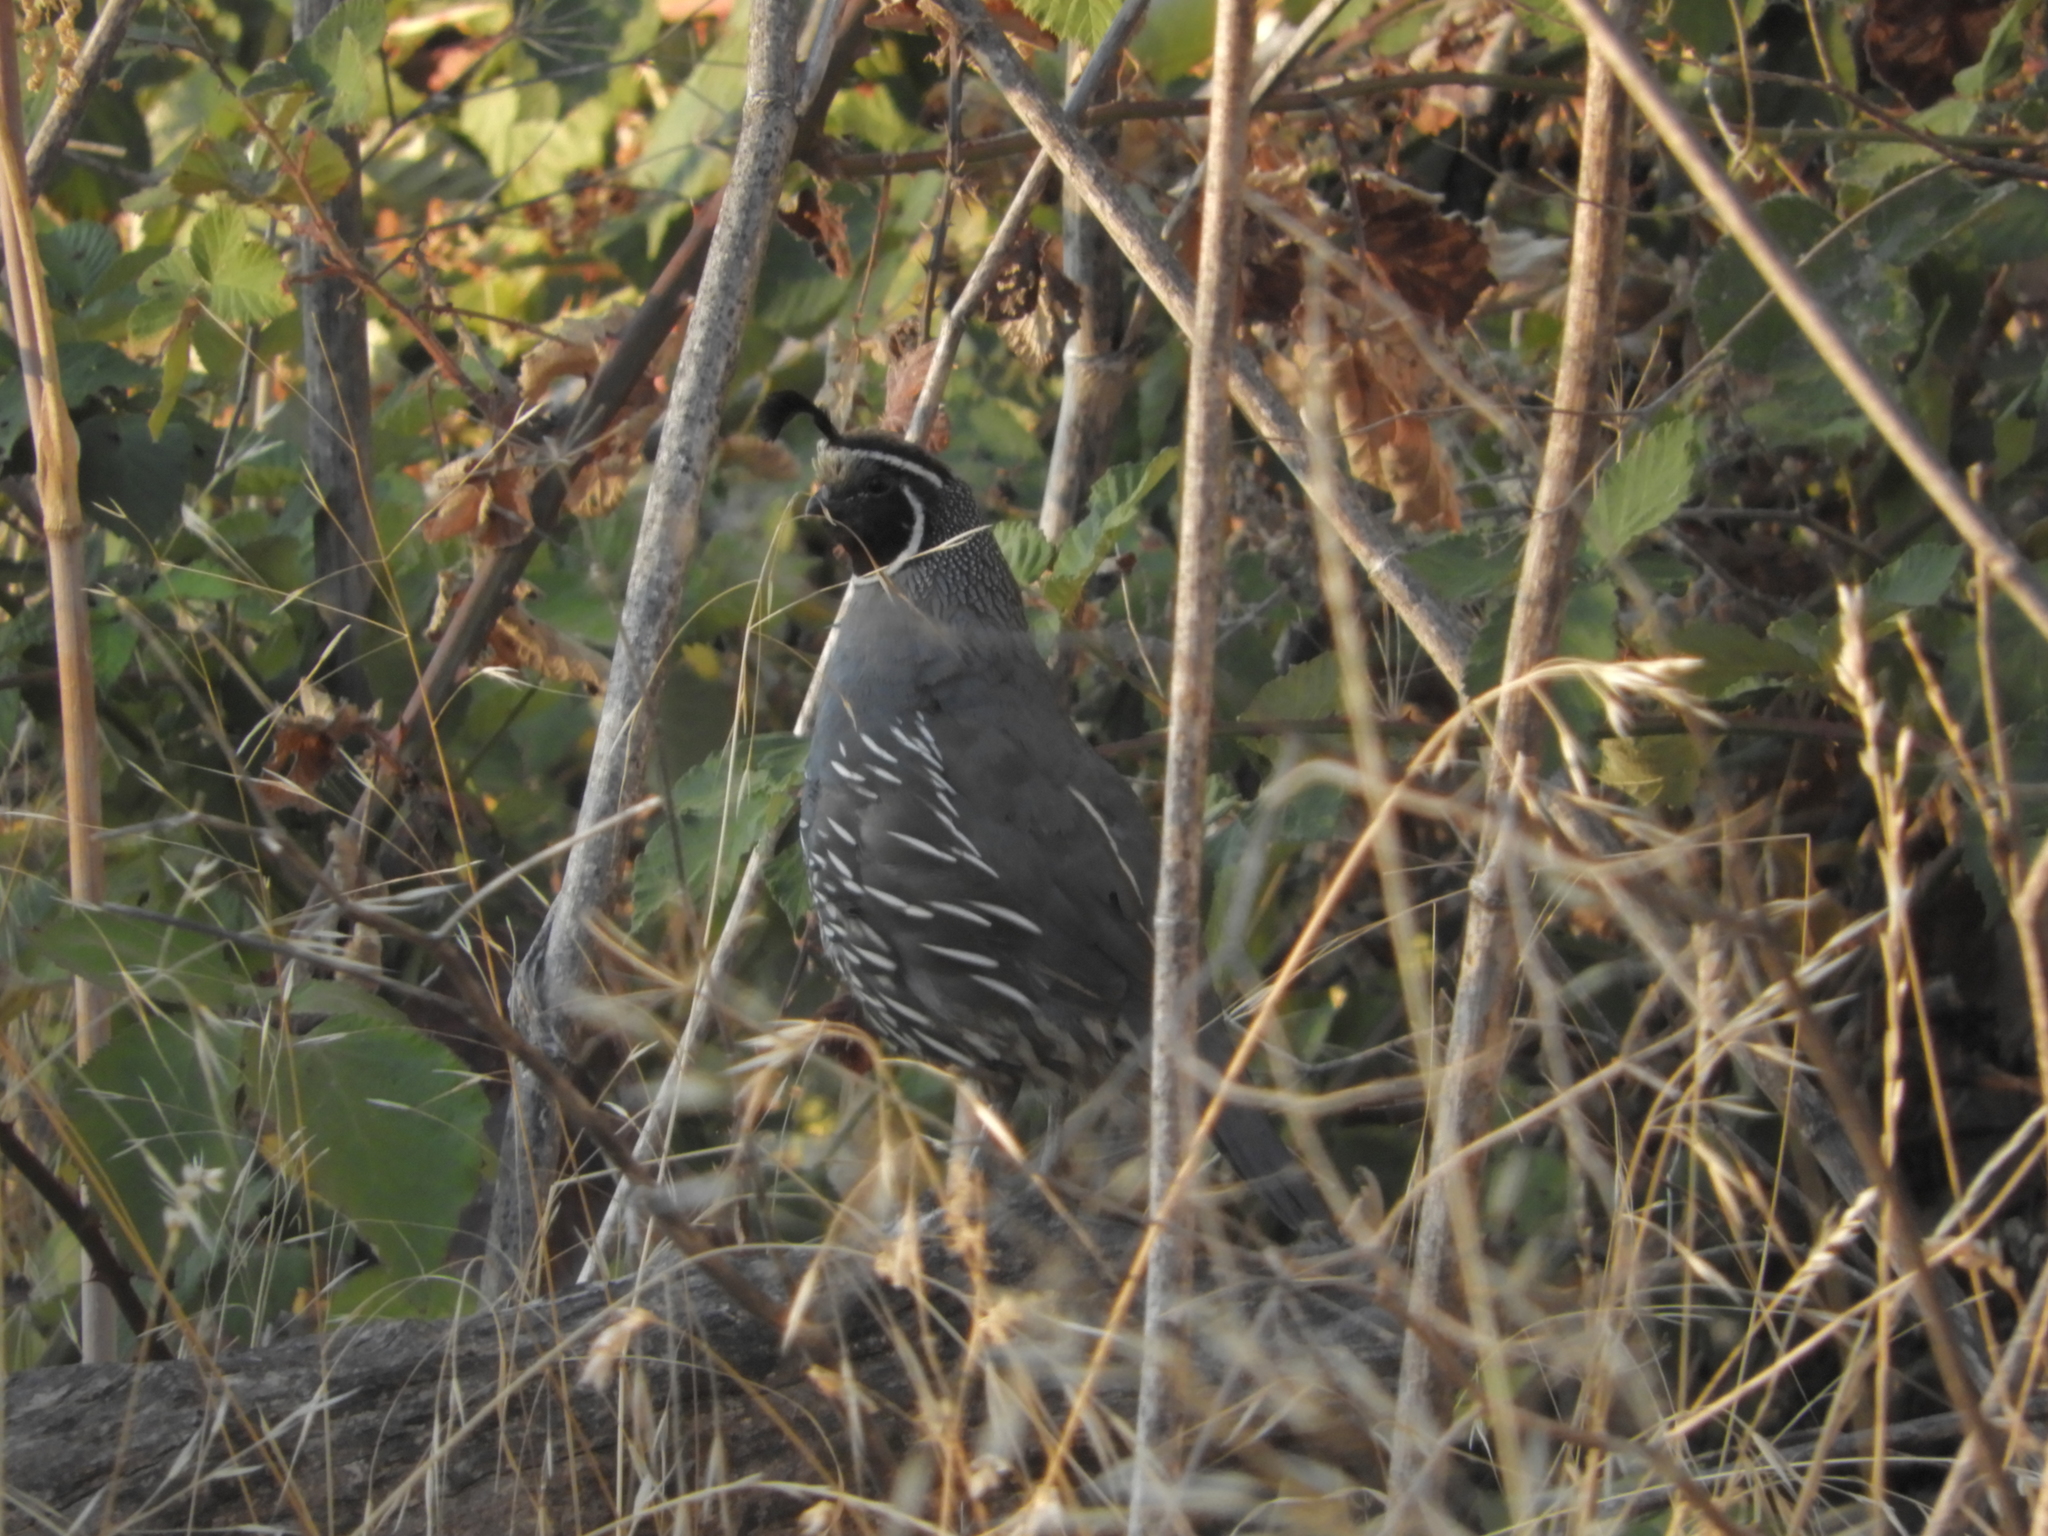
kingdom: Animalia
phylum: Chordata
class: Aves
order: Galliformes
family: Odontophoridae
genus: Callipepla
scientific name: Callipepla californica
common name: California quail
